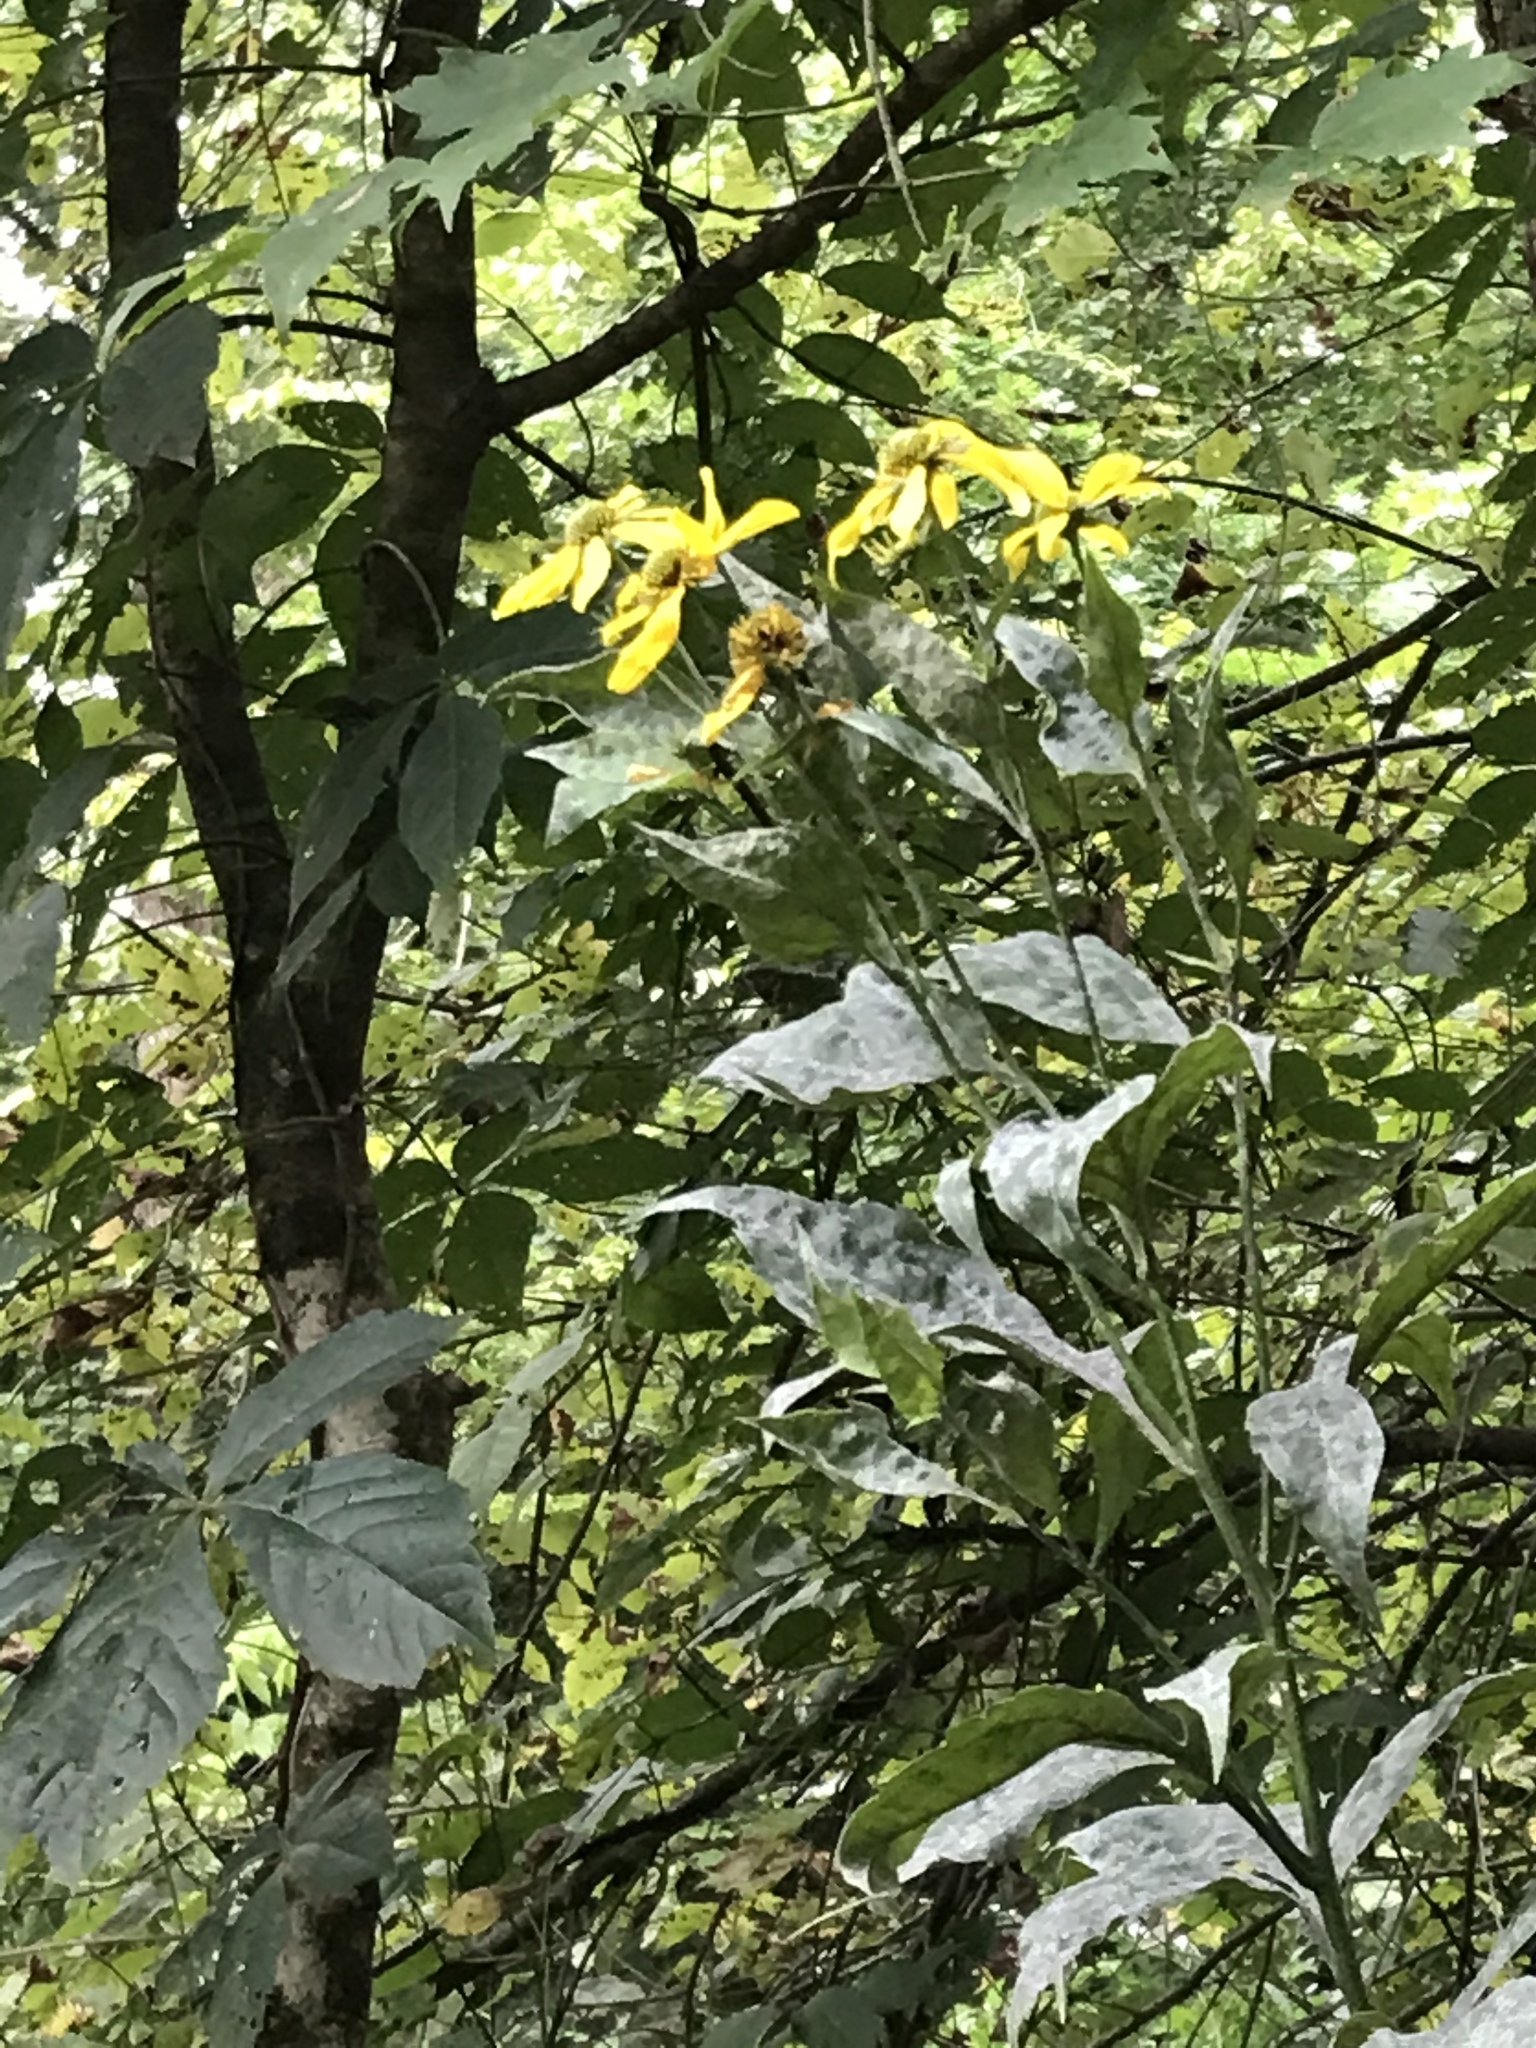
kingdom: Plantae
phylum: Tracheophyta
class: Magnoliopsida
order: Asterales
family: Asteraceae
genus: Rudbeckia
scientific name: Rudbeckia laciniata
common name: Coneflower
